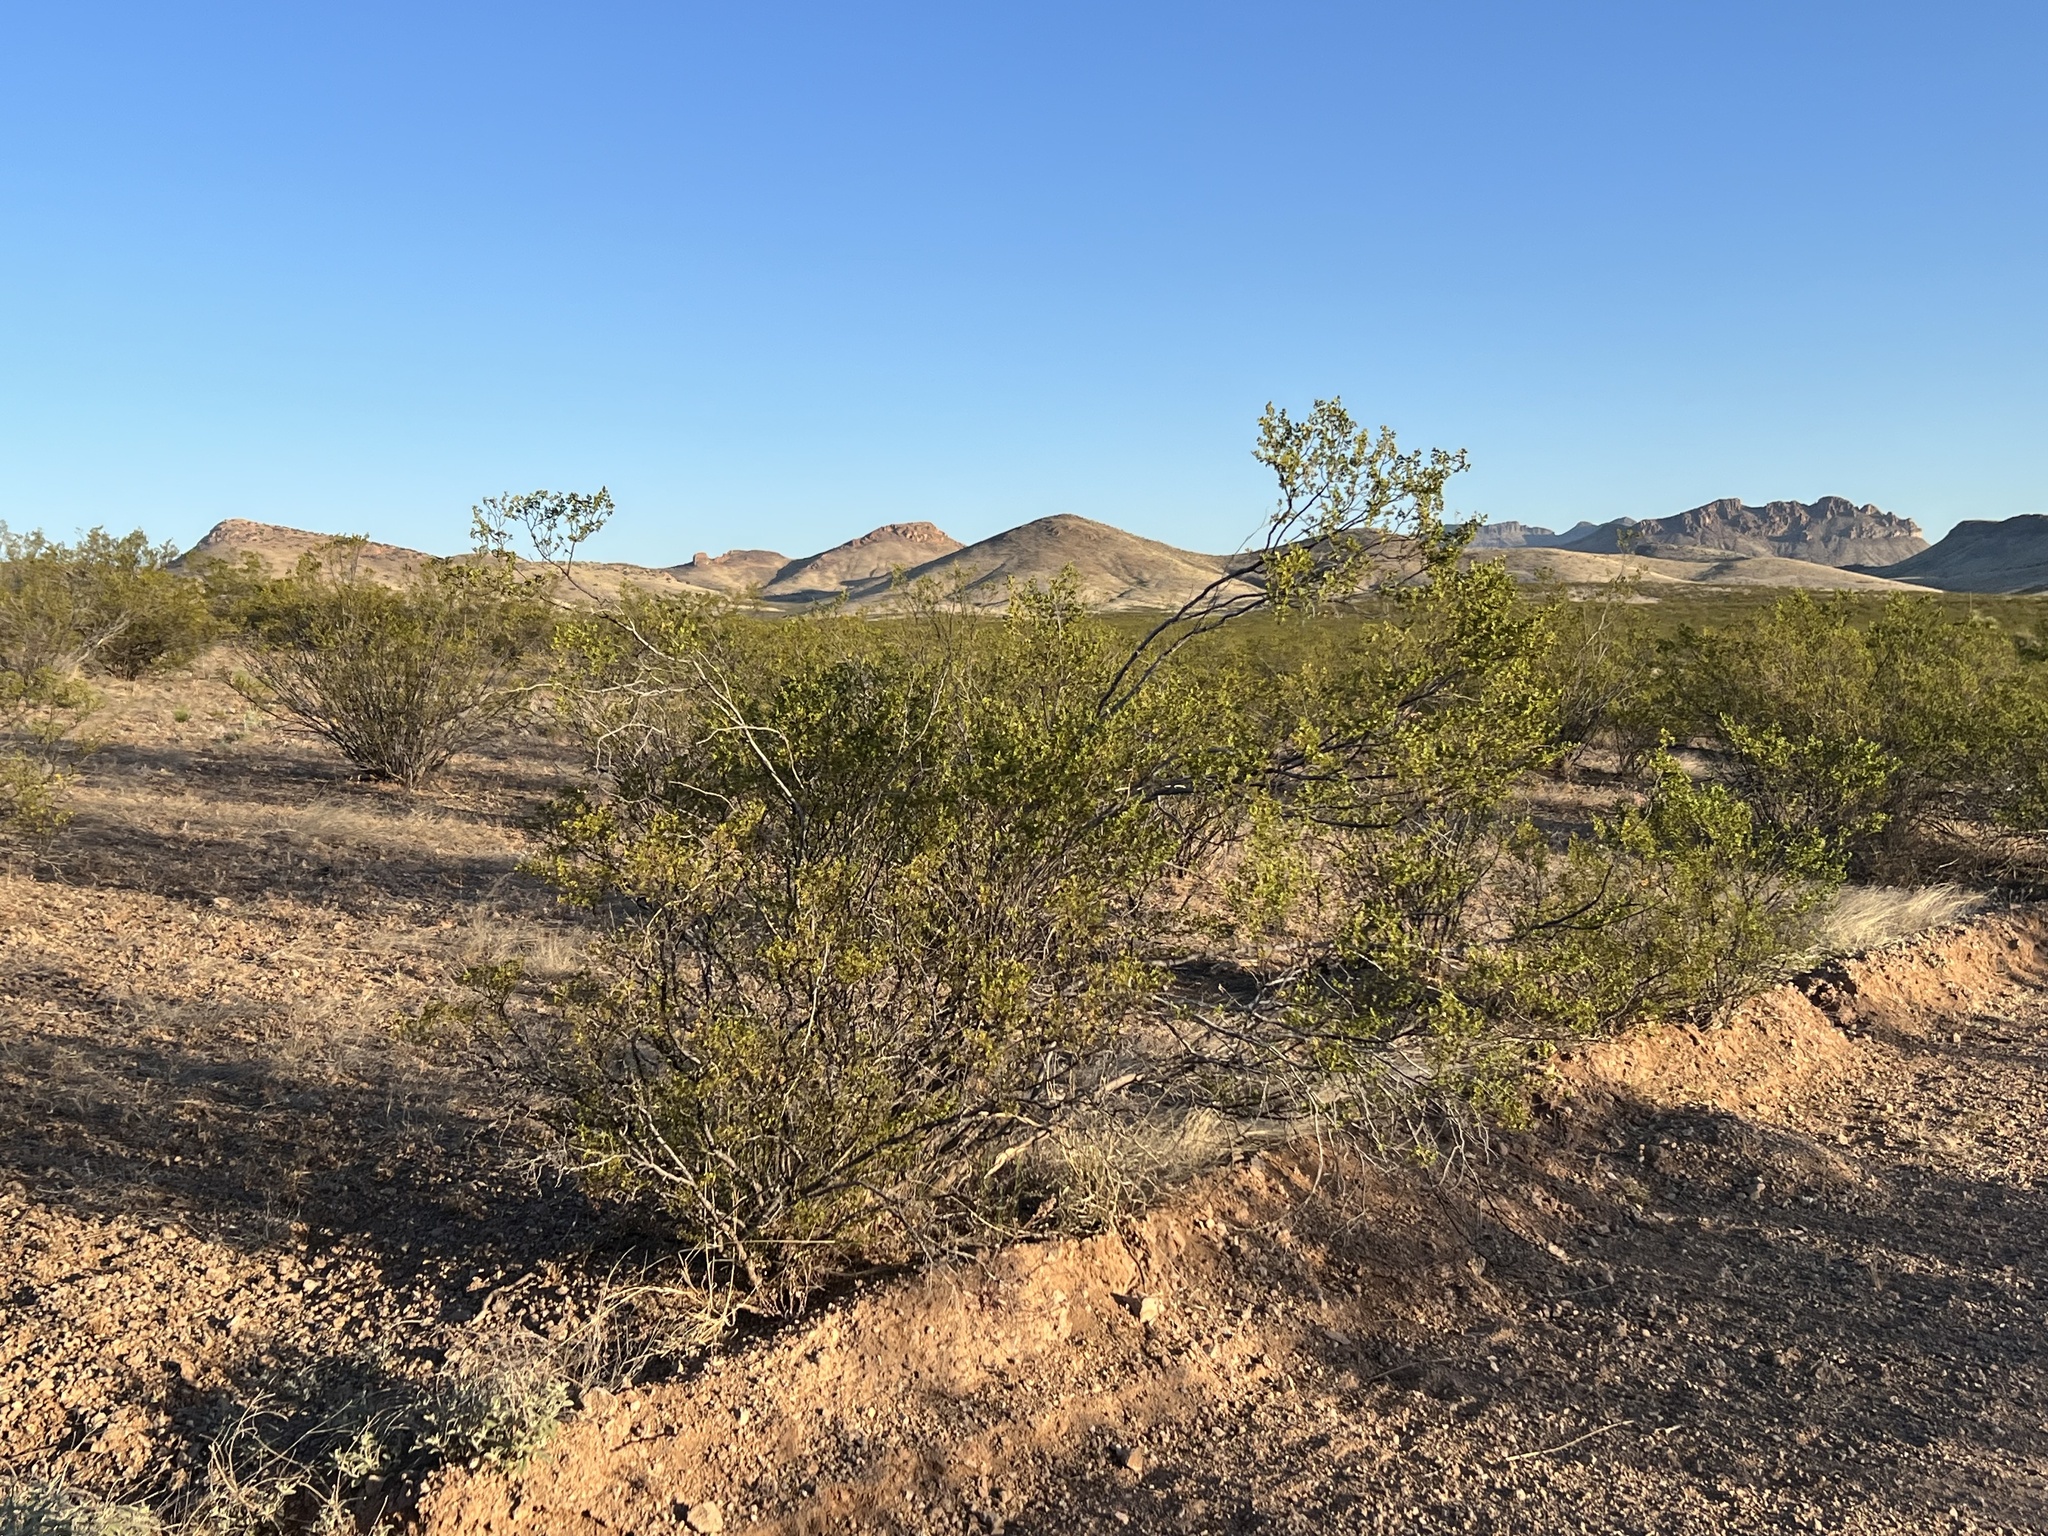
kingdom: Plantae
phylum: Tracheophyta
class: Magnoliopsida
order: Zygophyllales
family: Zygophyllaceae
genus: Larrea
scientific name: Larrea tridentata
